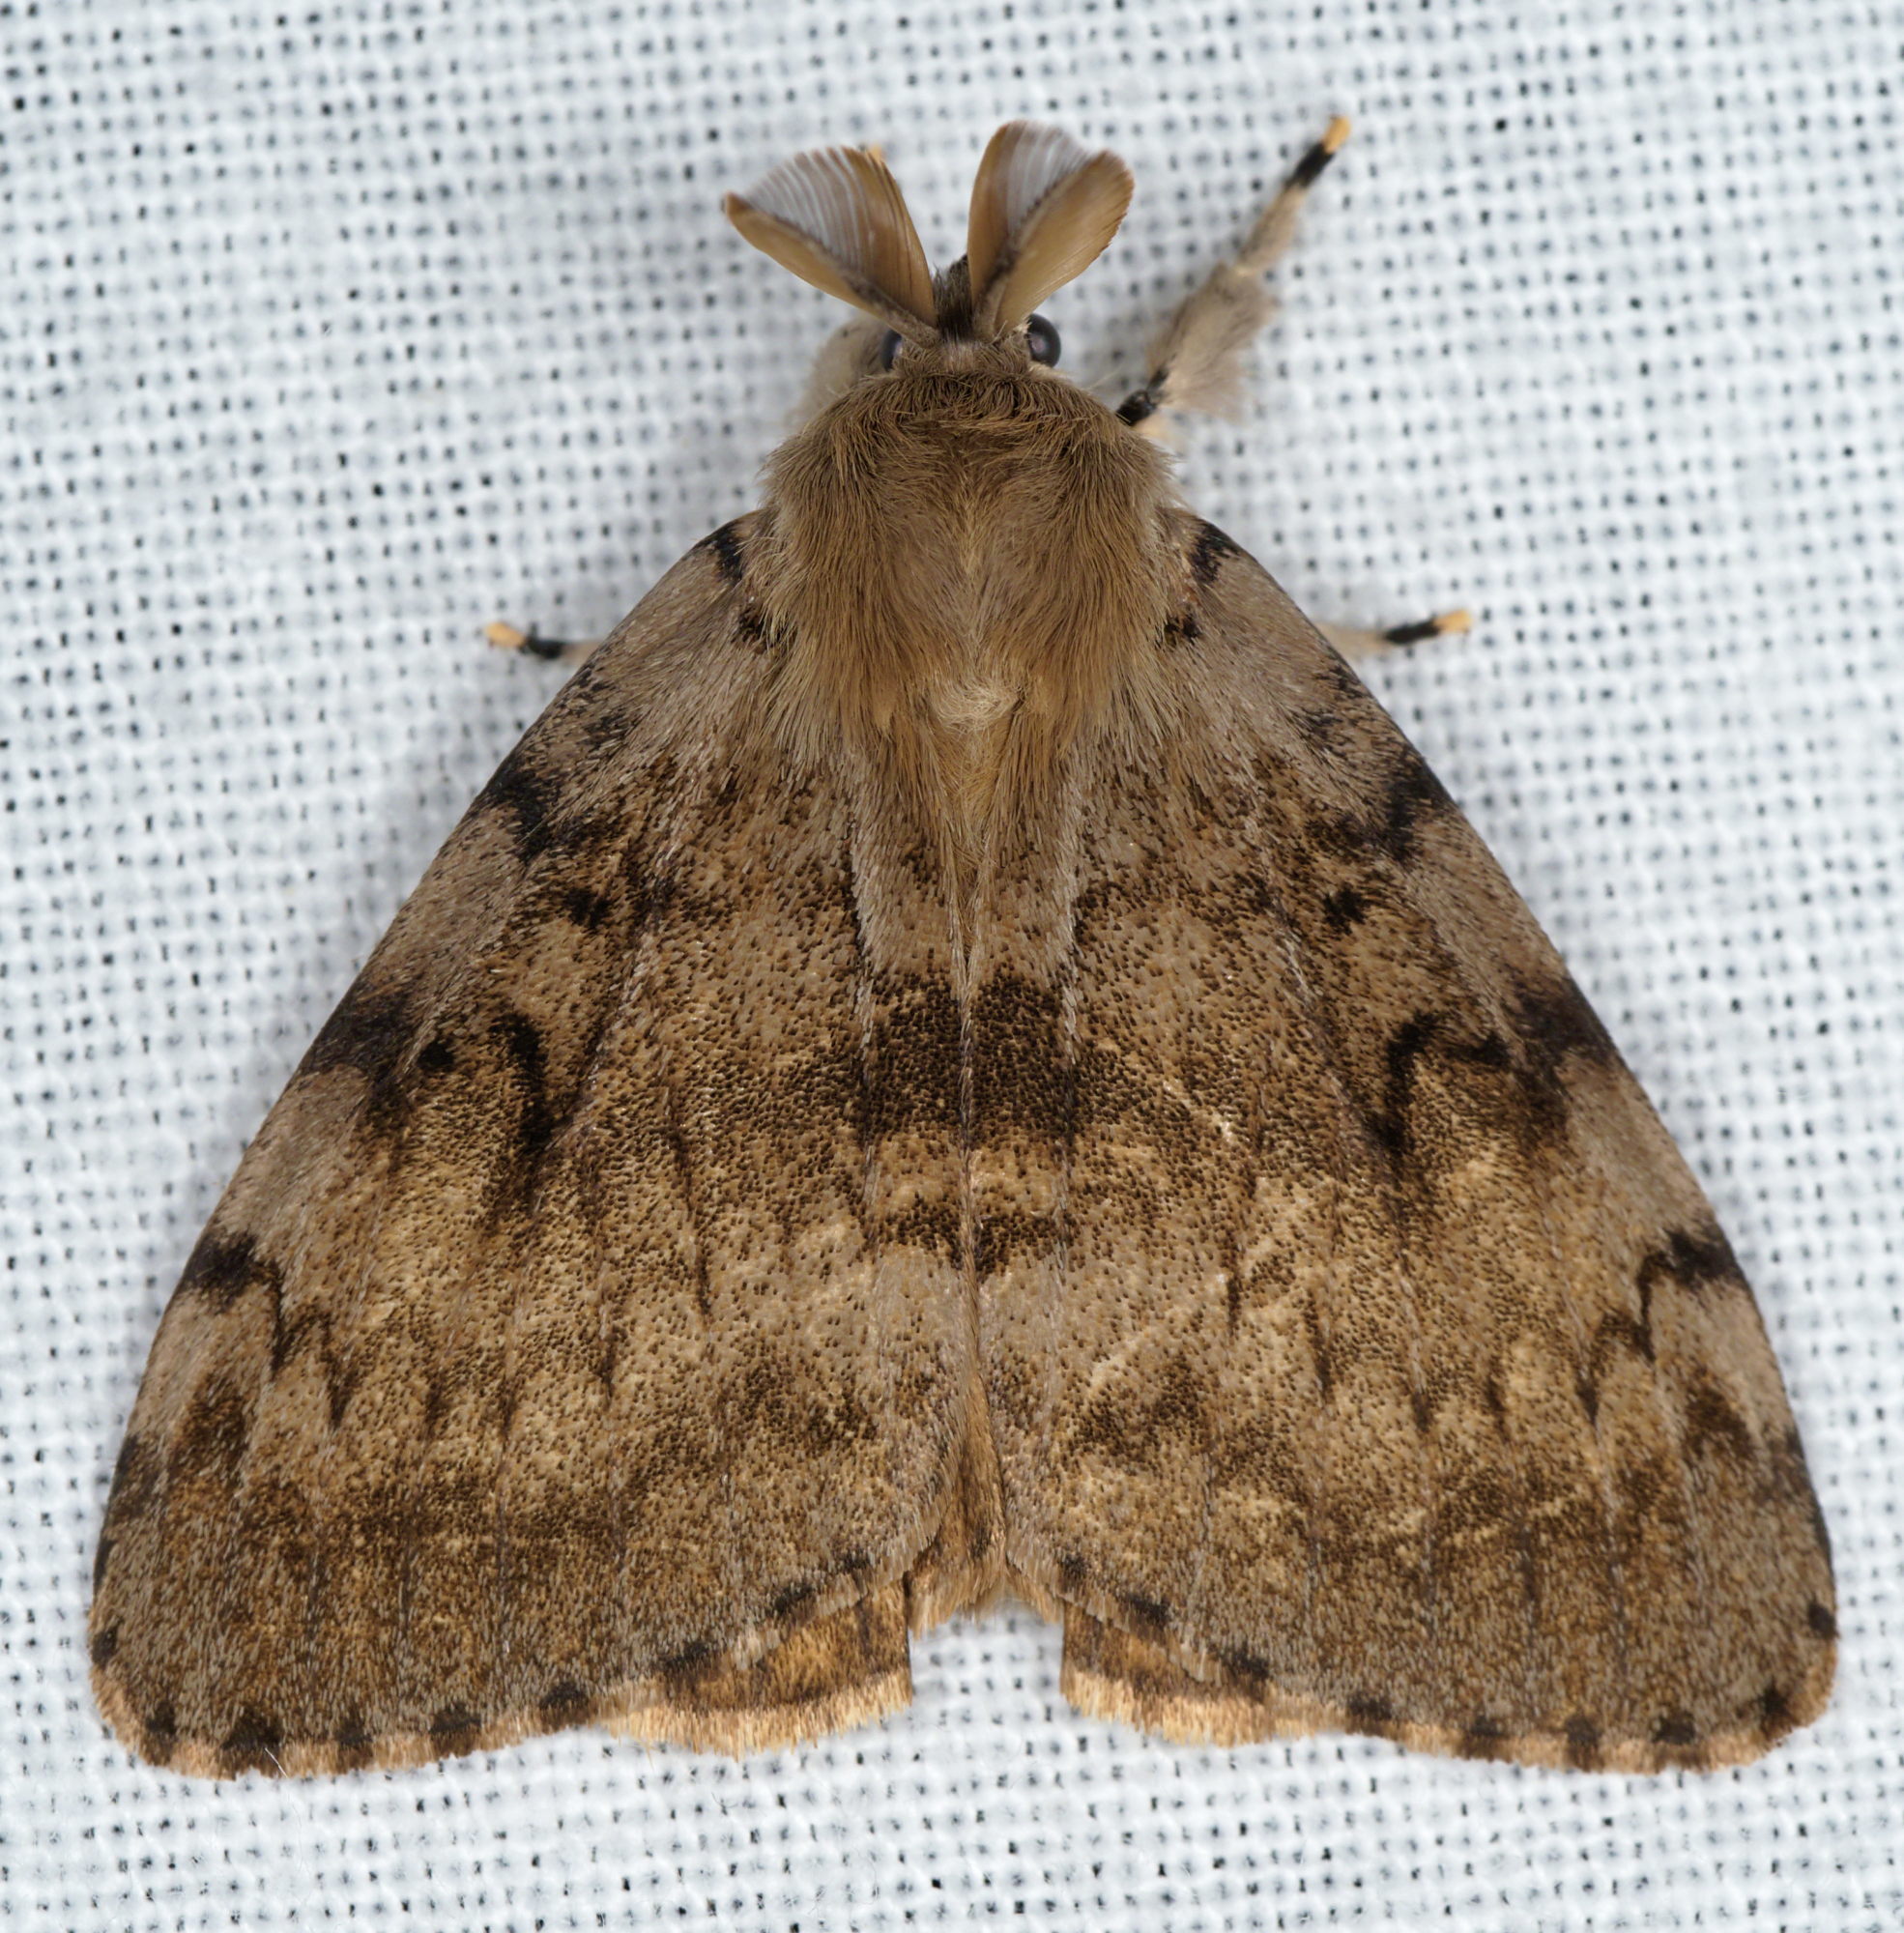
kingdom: Animalia
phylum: Arthropoda
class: Insecta
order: Lepidoptera
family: Erebidae
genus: Lymantria
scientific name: Lymantria dispar
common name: Gypsy moth
